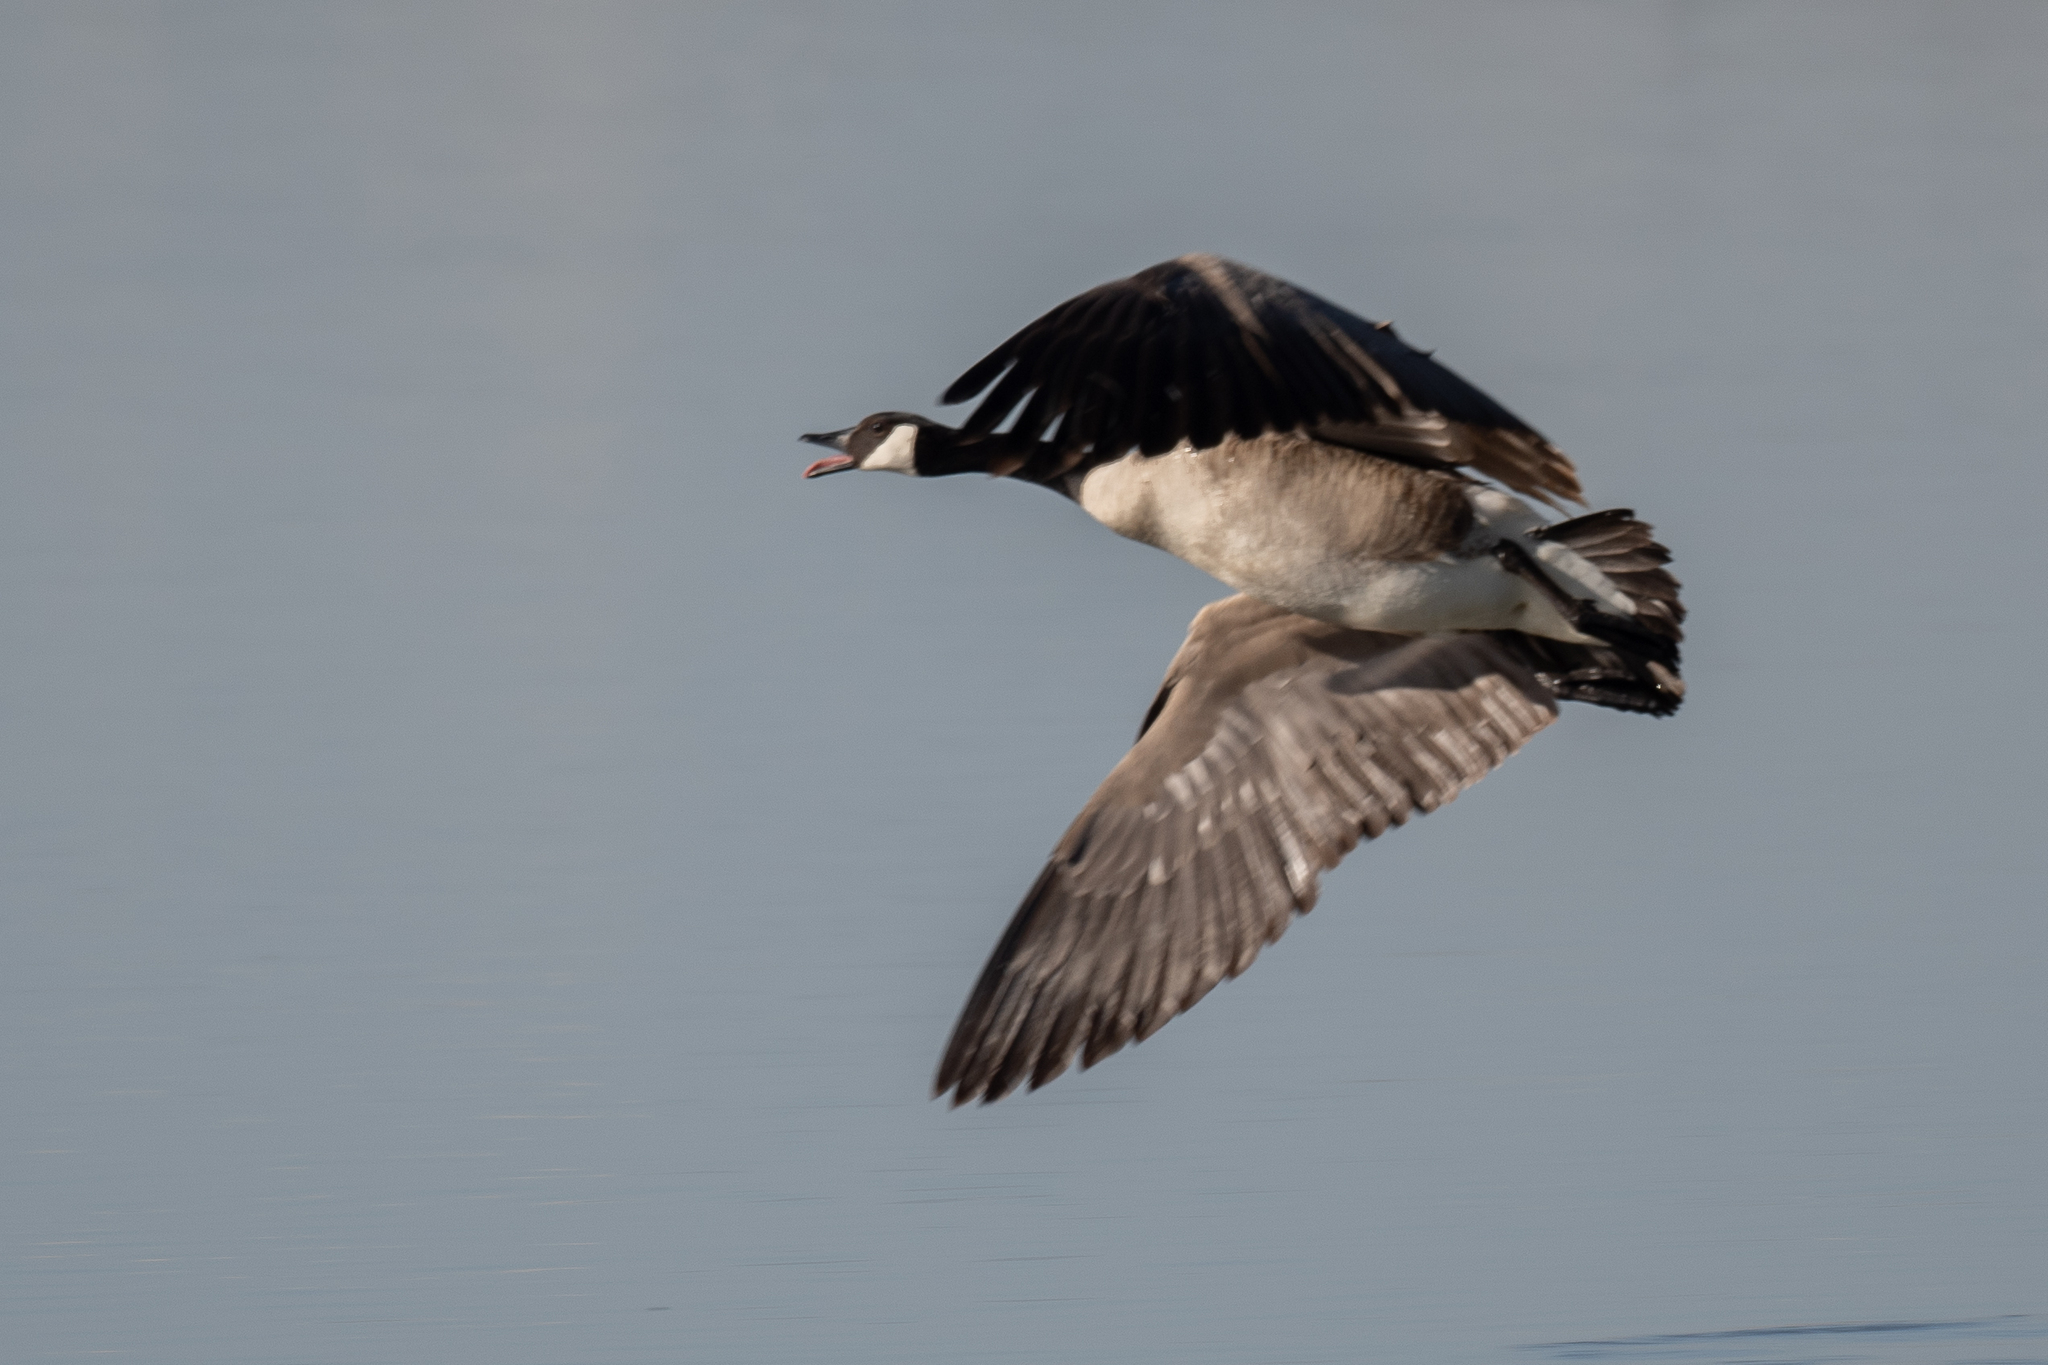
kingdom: Animalia
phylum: Chordata
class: Aves
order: Anseriformes
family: Anatidae
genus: Branta
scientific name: Branta canadensis
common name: Canada goose
